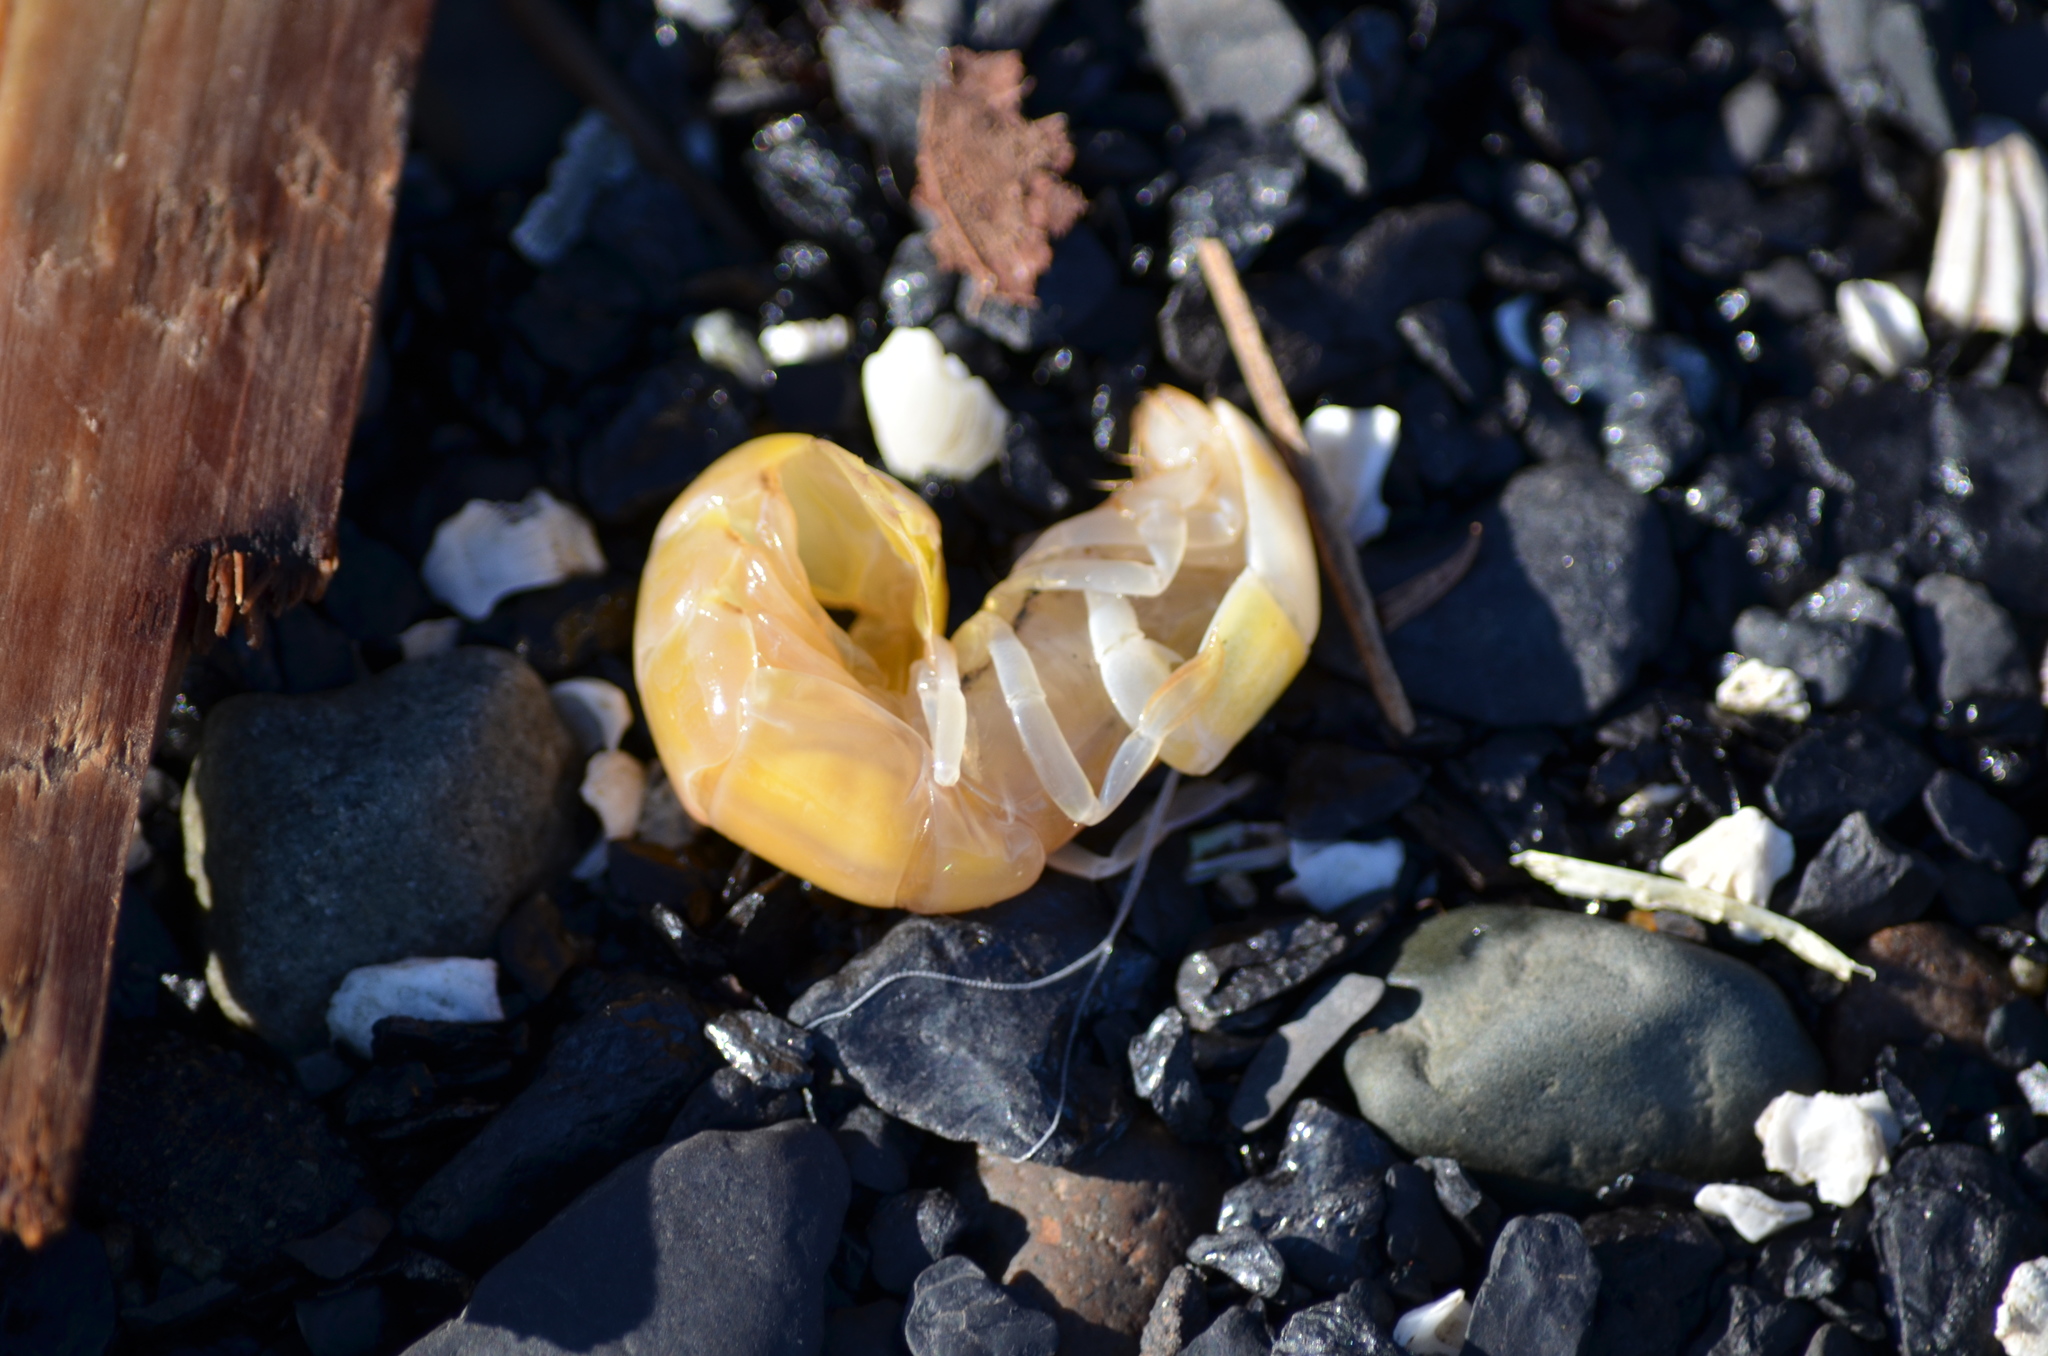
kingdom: Animalia
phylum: Arthropoda
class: Malacostraca
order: Decapoda
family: Callianassidae
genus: Neotrypaea
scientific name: Neotrypaea californiensis
